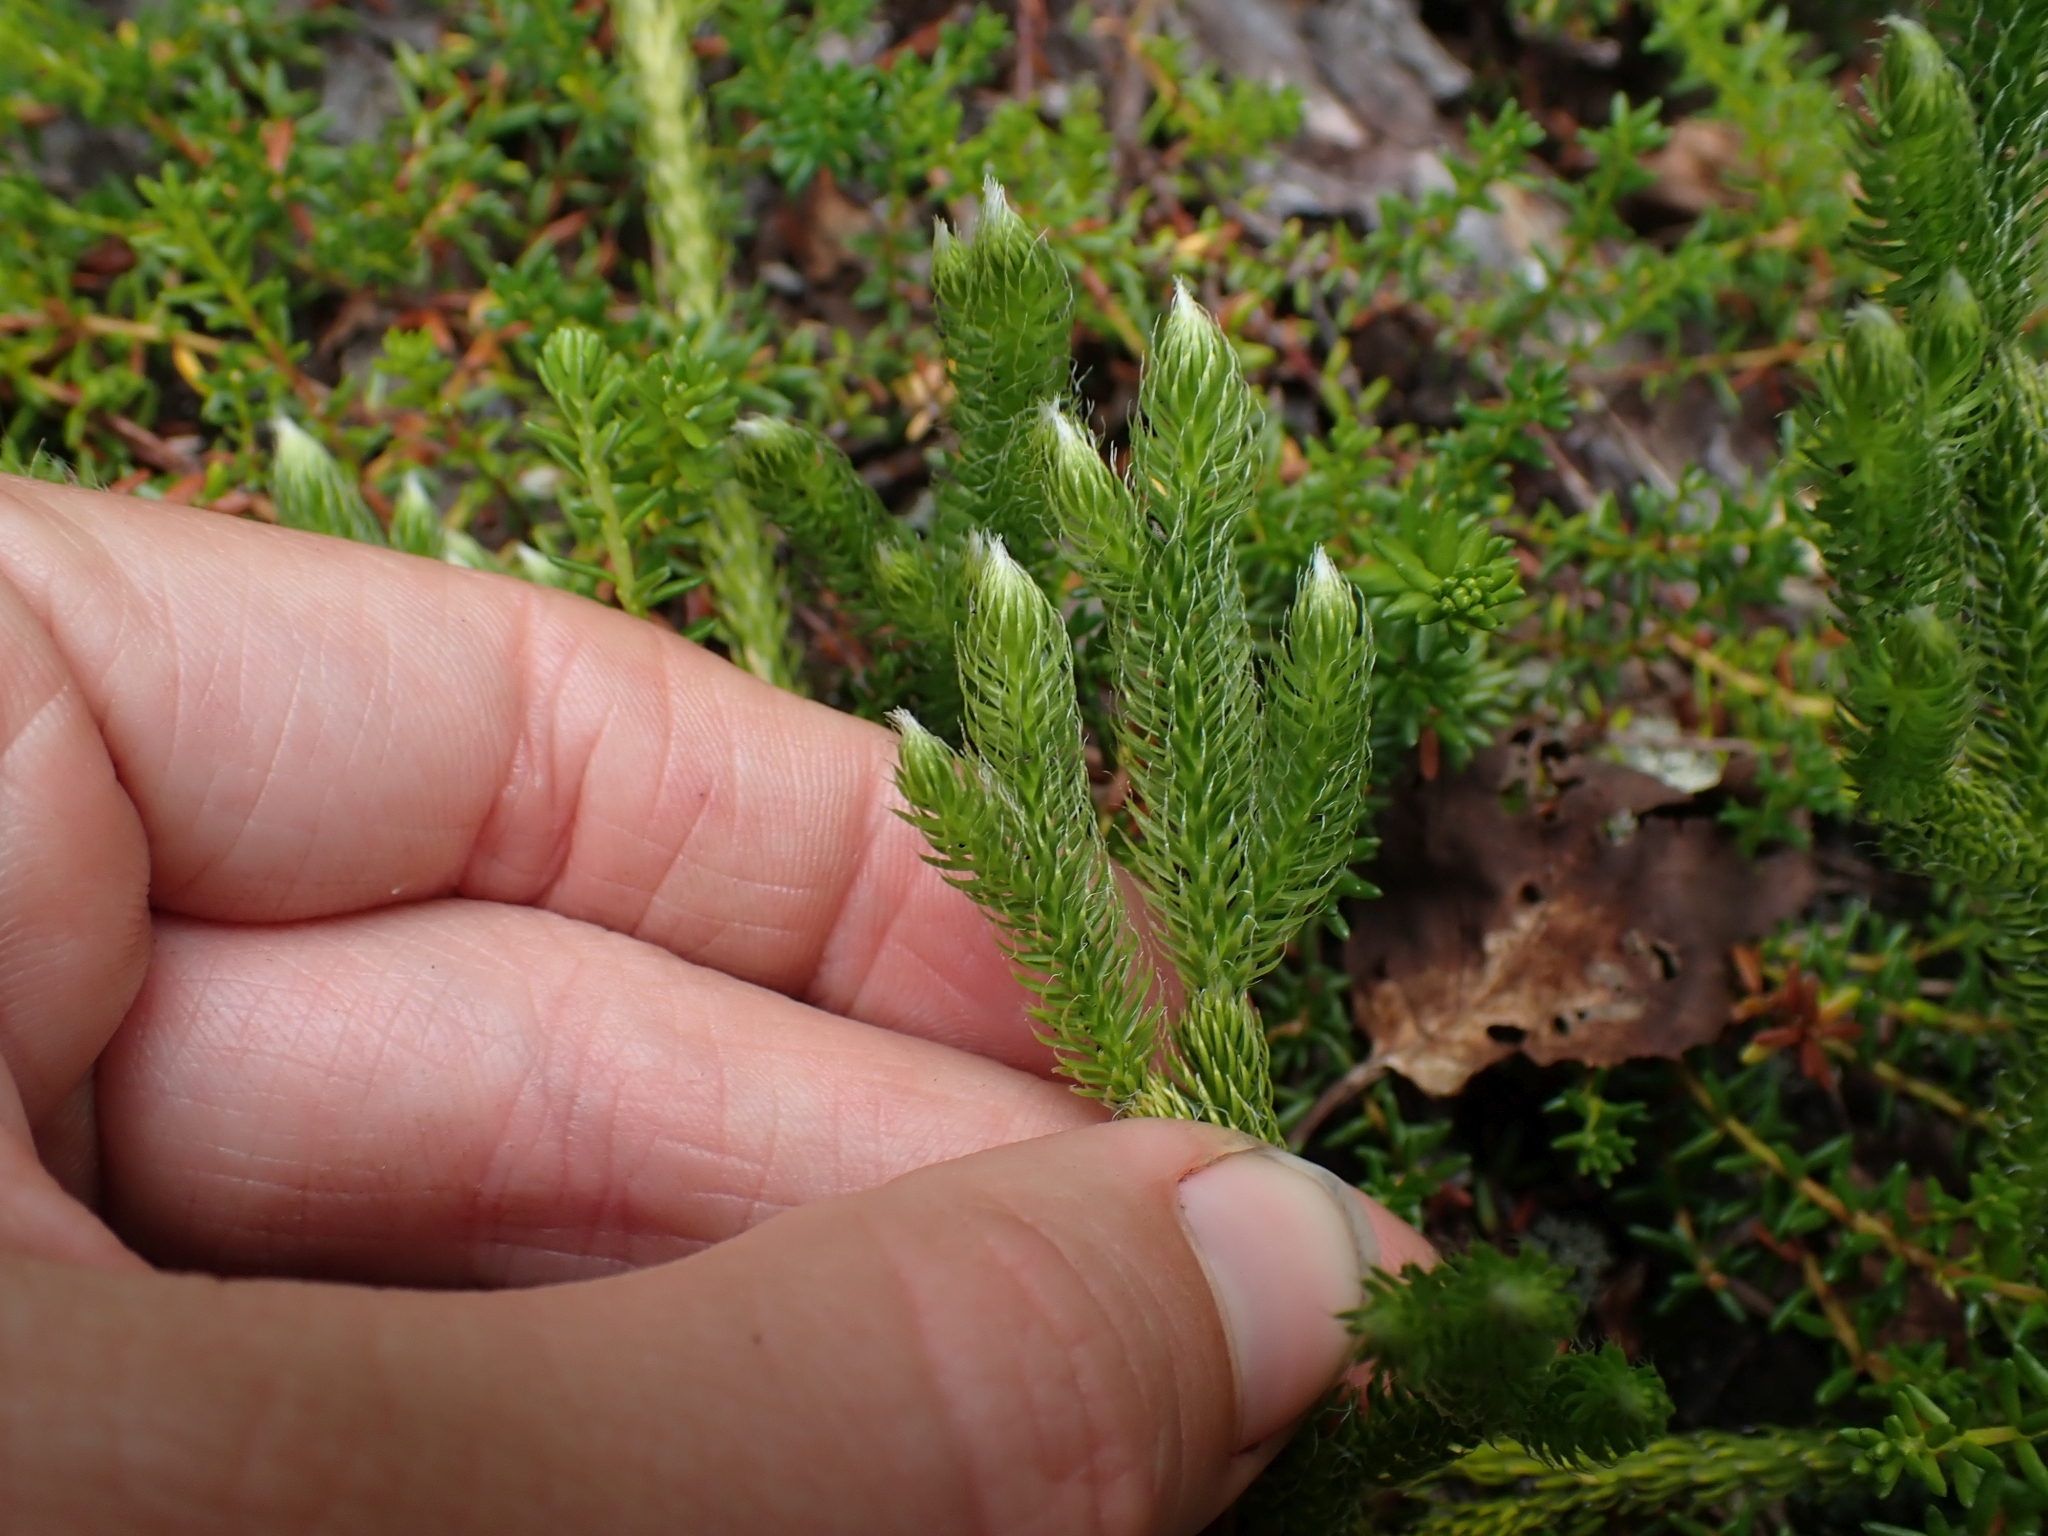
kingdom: Plantae
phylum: Tracheophyta
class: Lycopodiopsida
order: Lycopodiales
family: Lycopodiaceae
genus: Lycopodium
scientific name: Lycopodium lagopus
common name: One-cone clubmoss
